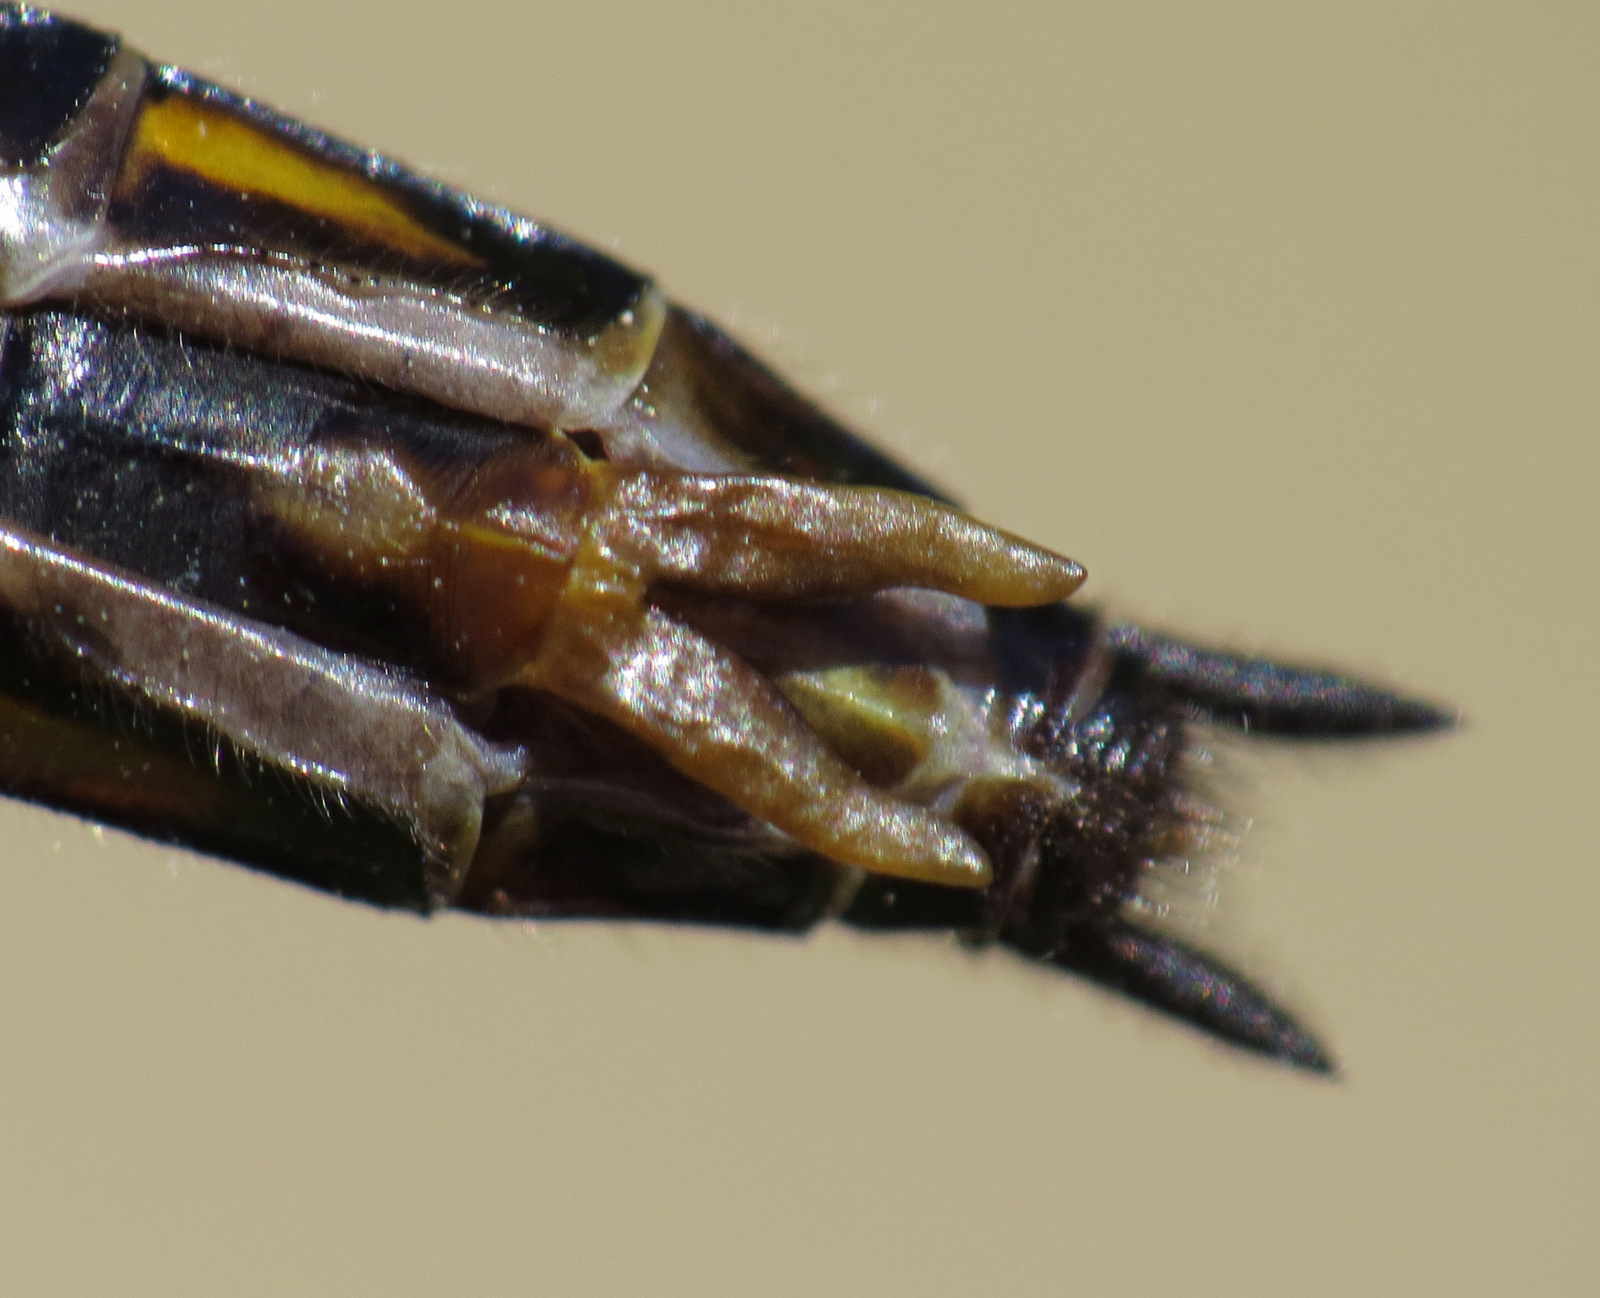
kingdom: Animalia
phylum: Arthropoda
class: Insecta
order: Odonata
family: Corduliidae
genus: Epitheca
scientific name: Epitheca cynosura
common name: Common baskettail
